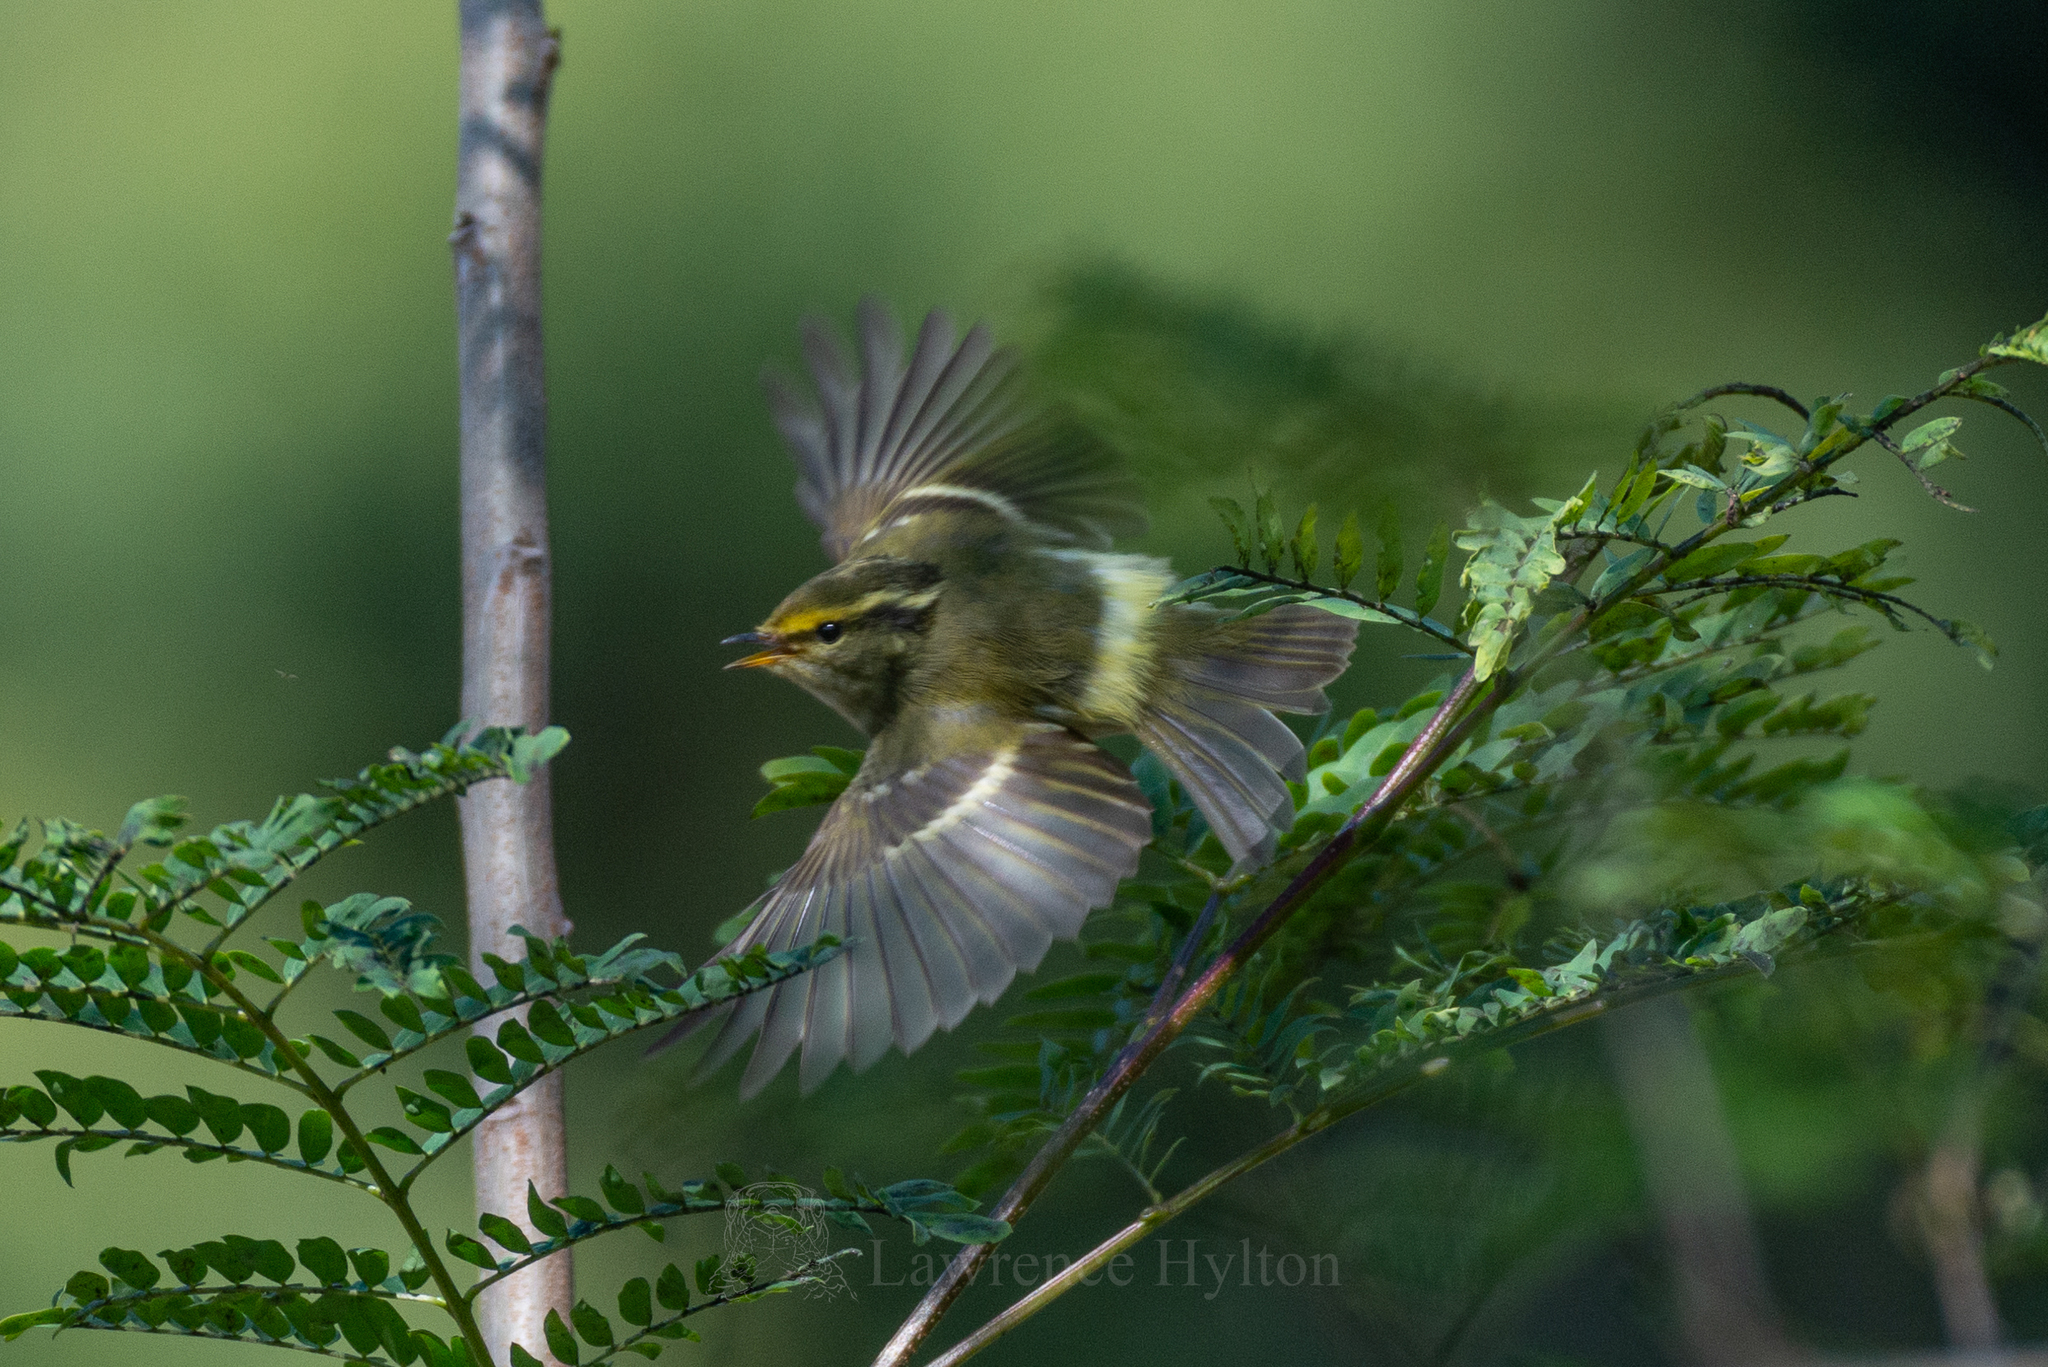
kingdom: Animalia
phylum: Chordata
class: Aves
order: Passeriformes
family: Phylloscopidae
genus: Phylloscopus
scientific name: Phylloscopus proregulus
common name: Pallas's leaf warbler
